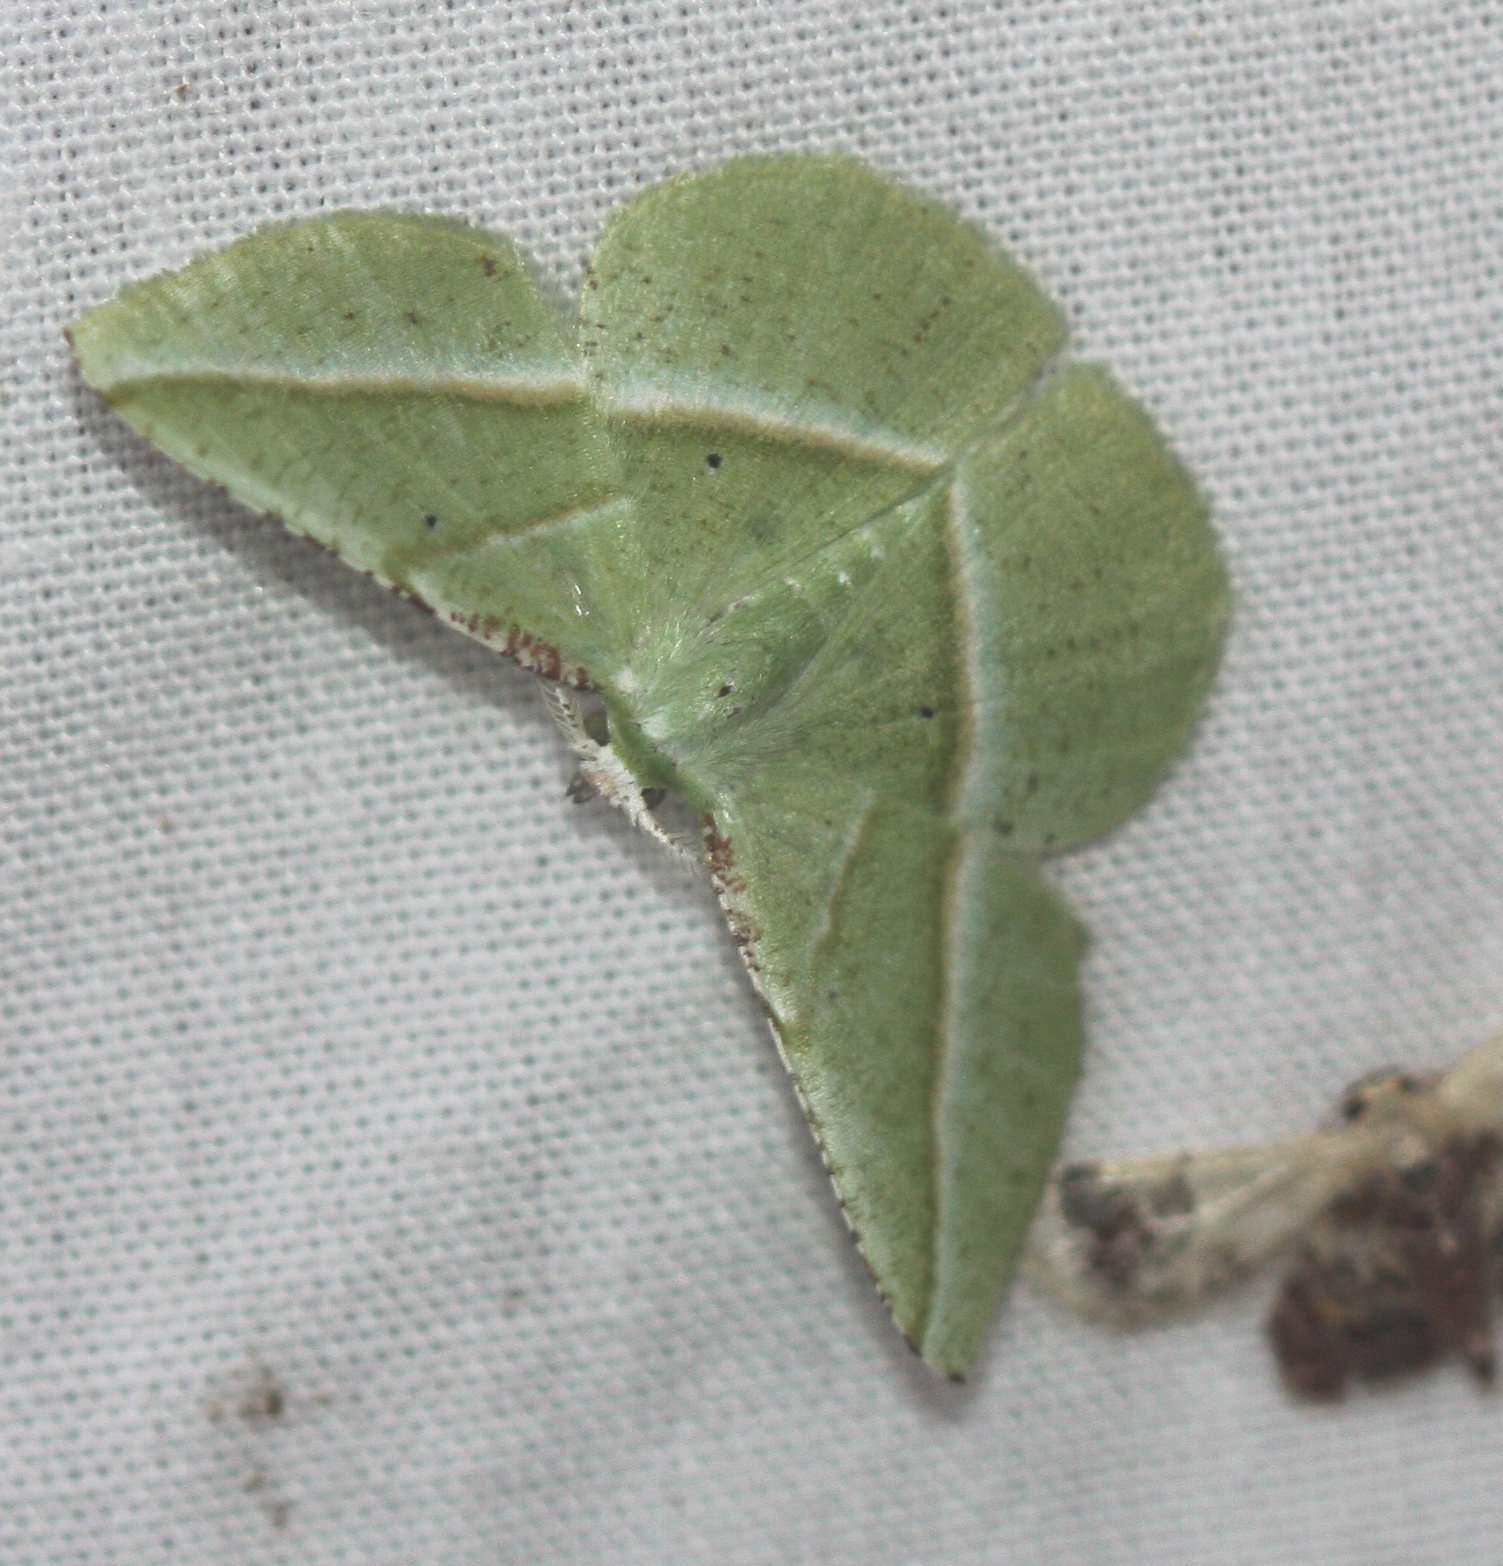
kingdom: Animalia
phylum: Arthropoda
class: Insecta
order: Lepidoptera
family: Geometridae
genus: Dichorda
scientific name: Dichorda obliquata
